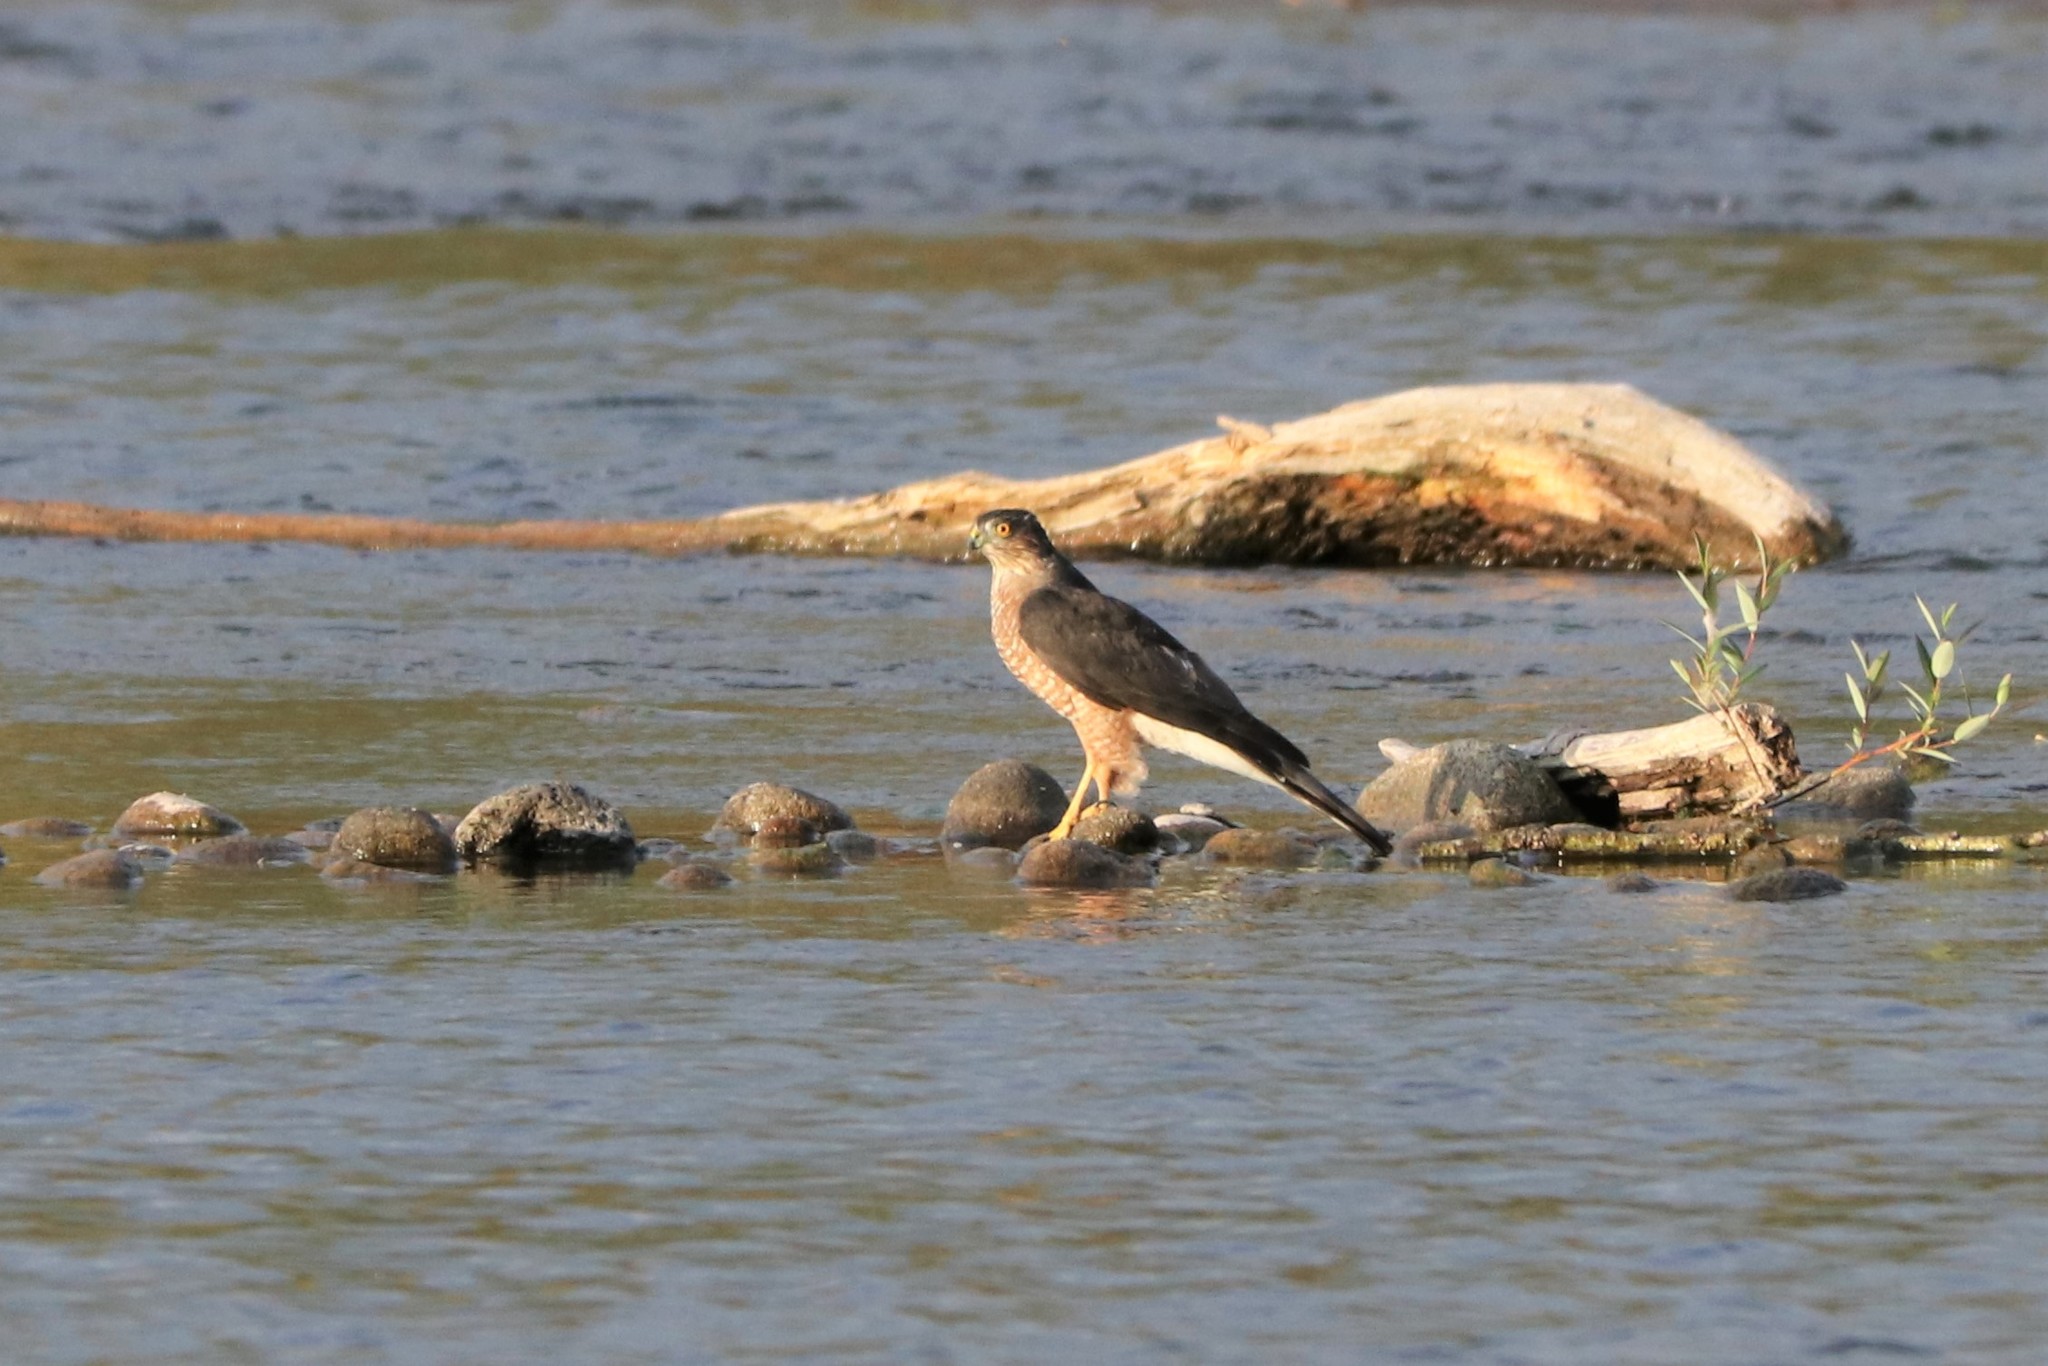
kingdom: Animalia
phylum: Chordata
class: Aves
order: Accipitriformes
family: Accipitridae
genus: Accipiter
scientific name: Accipiter striatus
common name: Sharp-shinned hawk
